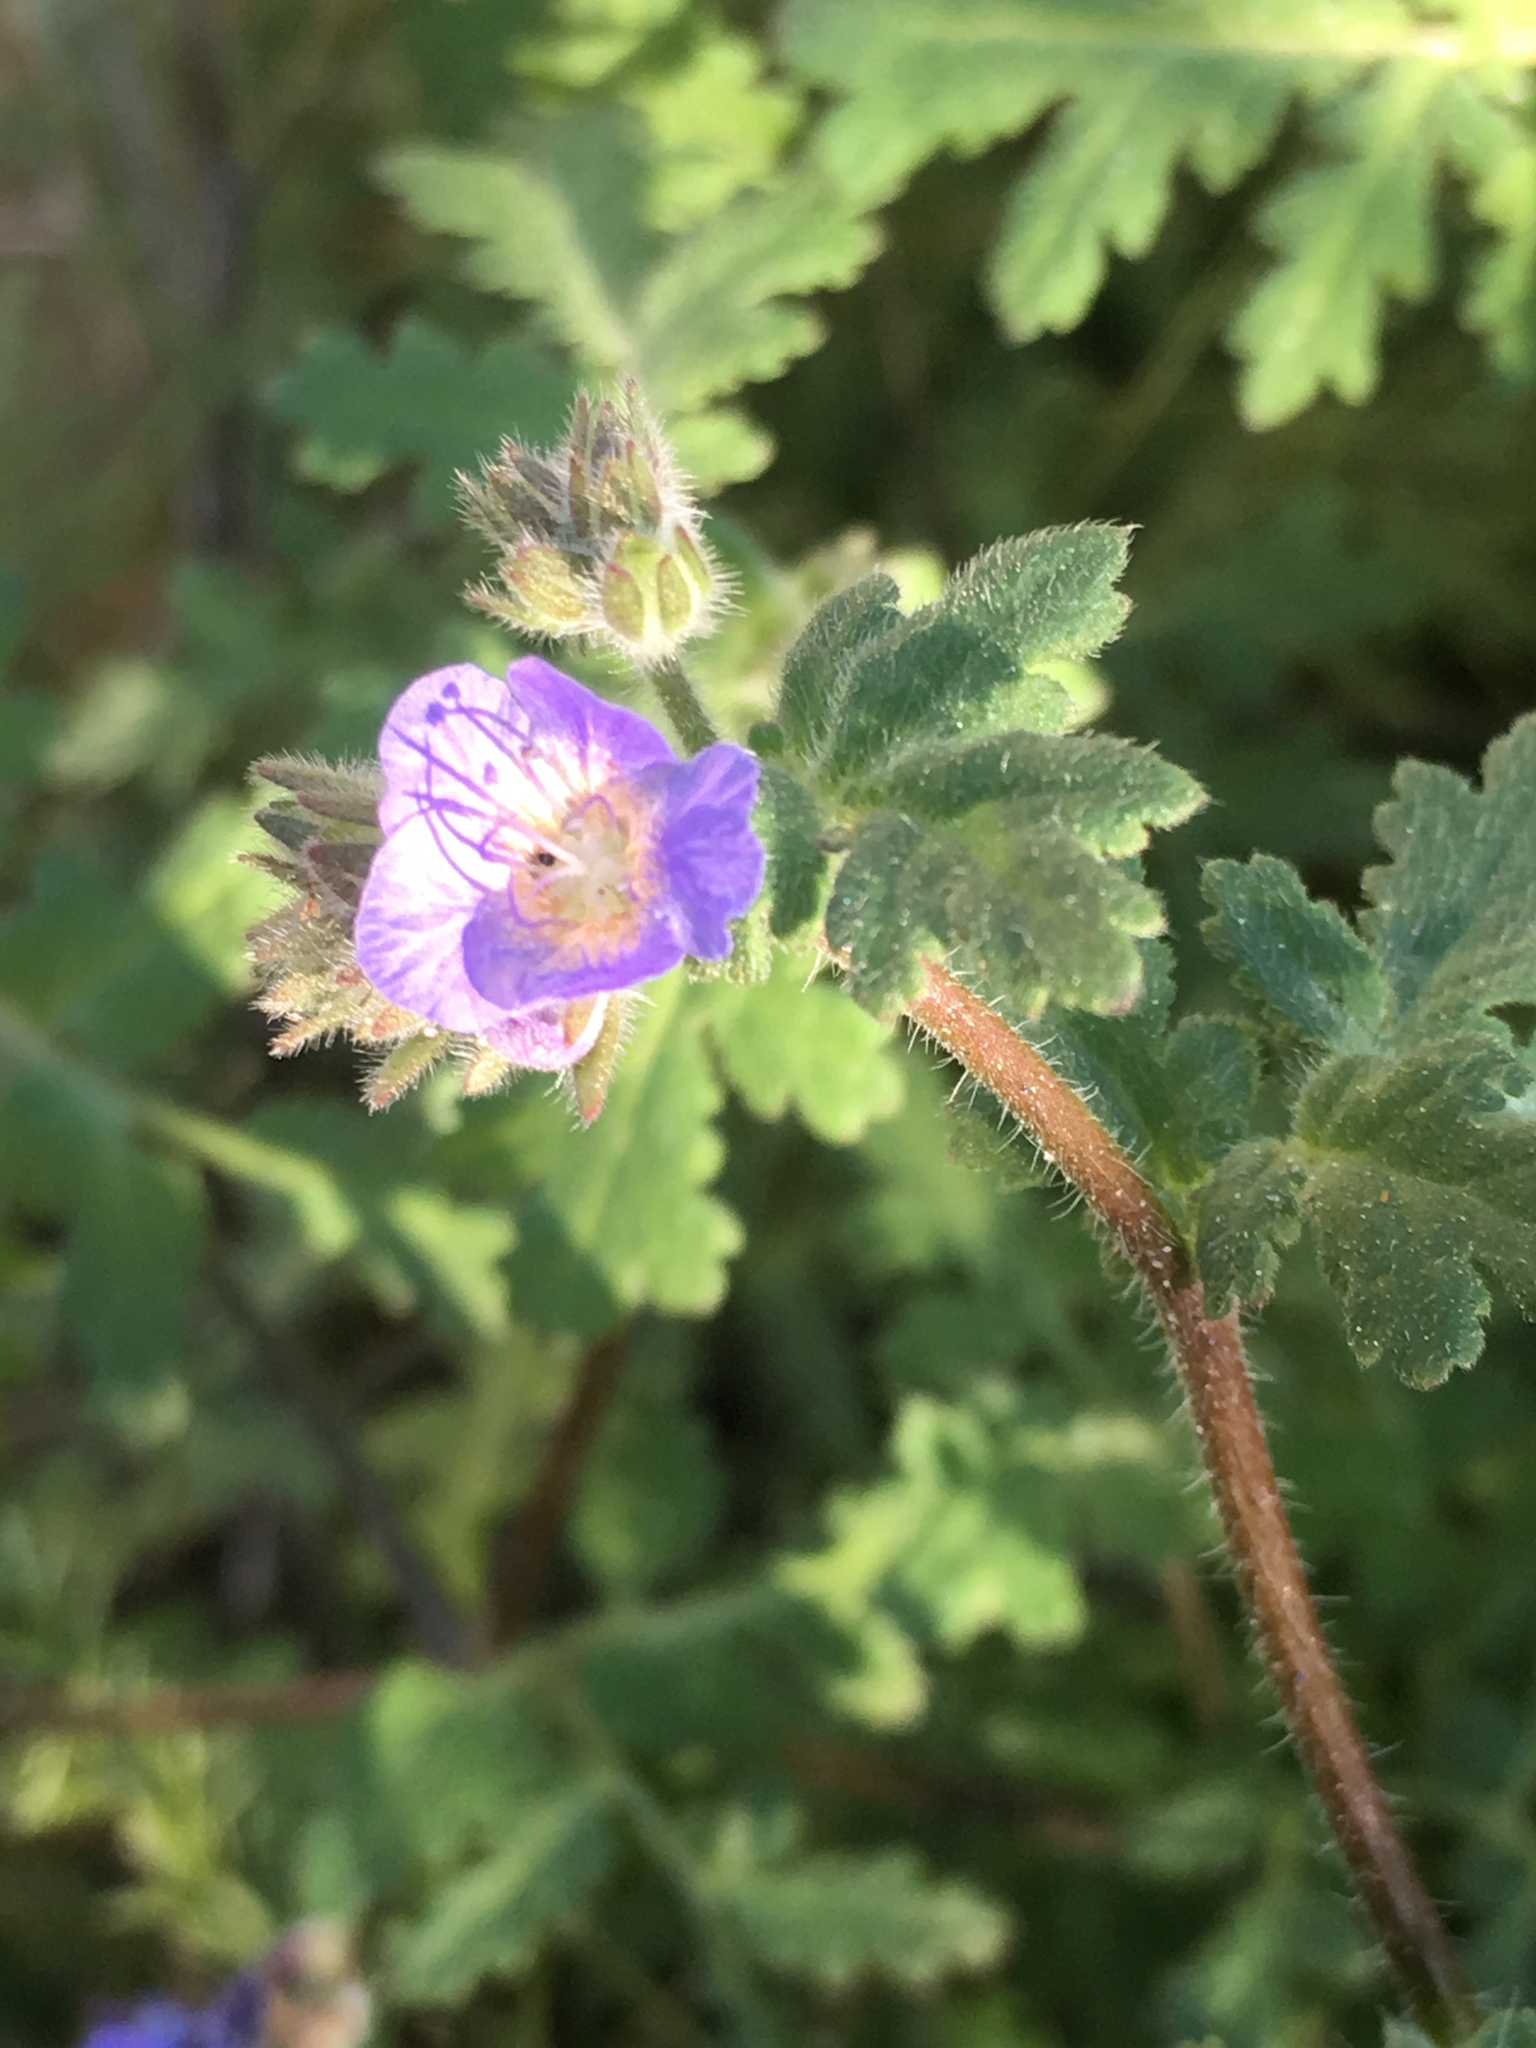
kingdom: Plantae
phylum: Tracheophyta
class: Magnoliopsida
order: Boraginales
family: Hydrophyllaceae
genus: Phacelia
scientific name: Phacelia distans
